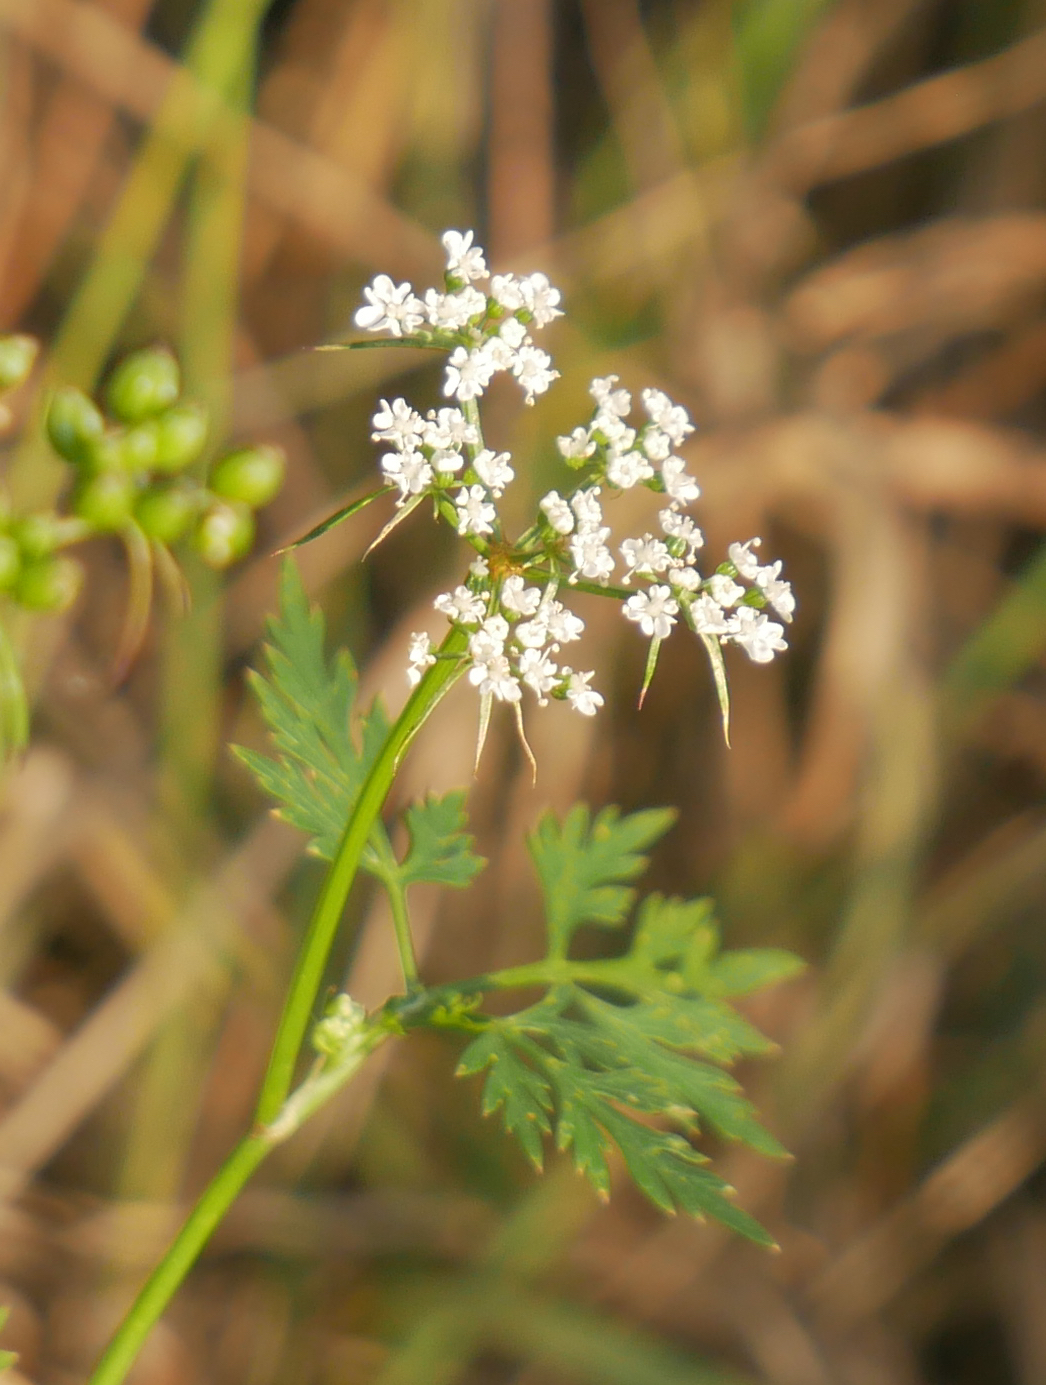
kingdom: Plantae
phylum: Tracheophyta
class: Magnoliopsida
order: Apiales
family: Apiaceae
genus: Aethusa
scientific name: Aethusa cynapium
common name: Fool's parsley
